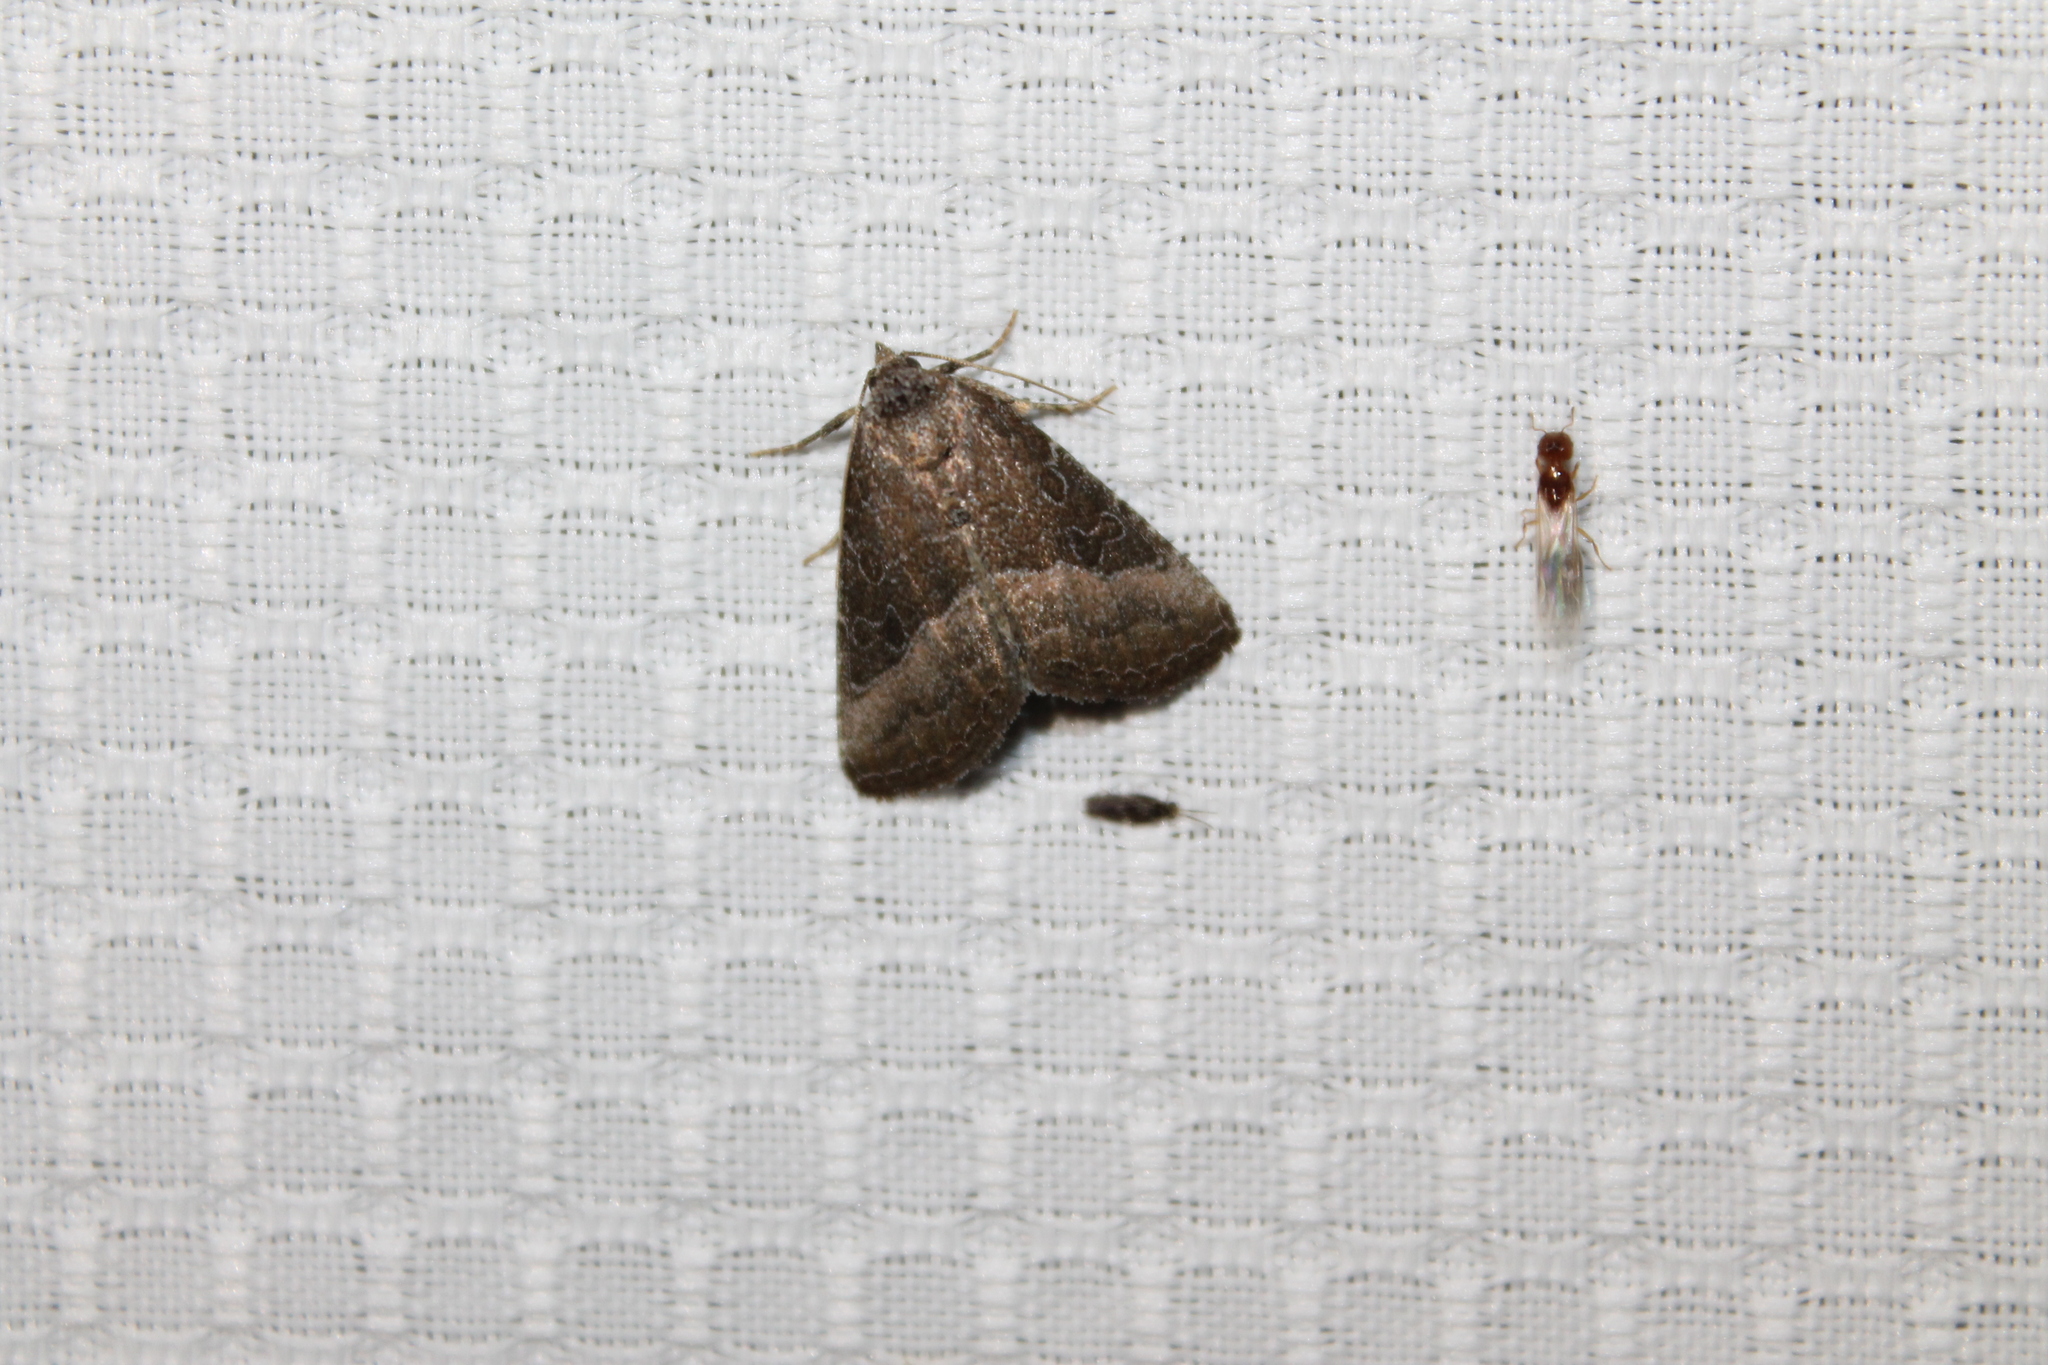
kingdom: Animalia
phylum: Arthropoda
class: Insecta
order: Lepidoptera
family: Noctuidae
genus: Ogdoconta
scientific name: Ogdoconta cinereola
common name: Common pinkband
